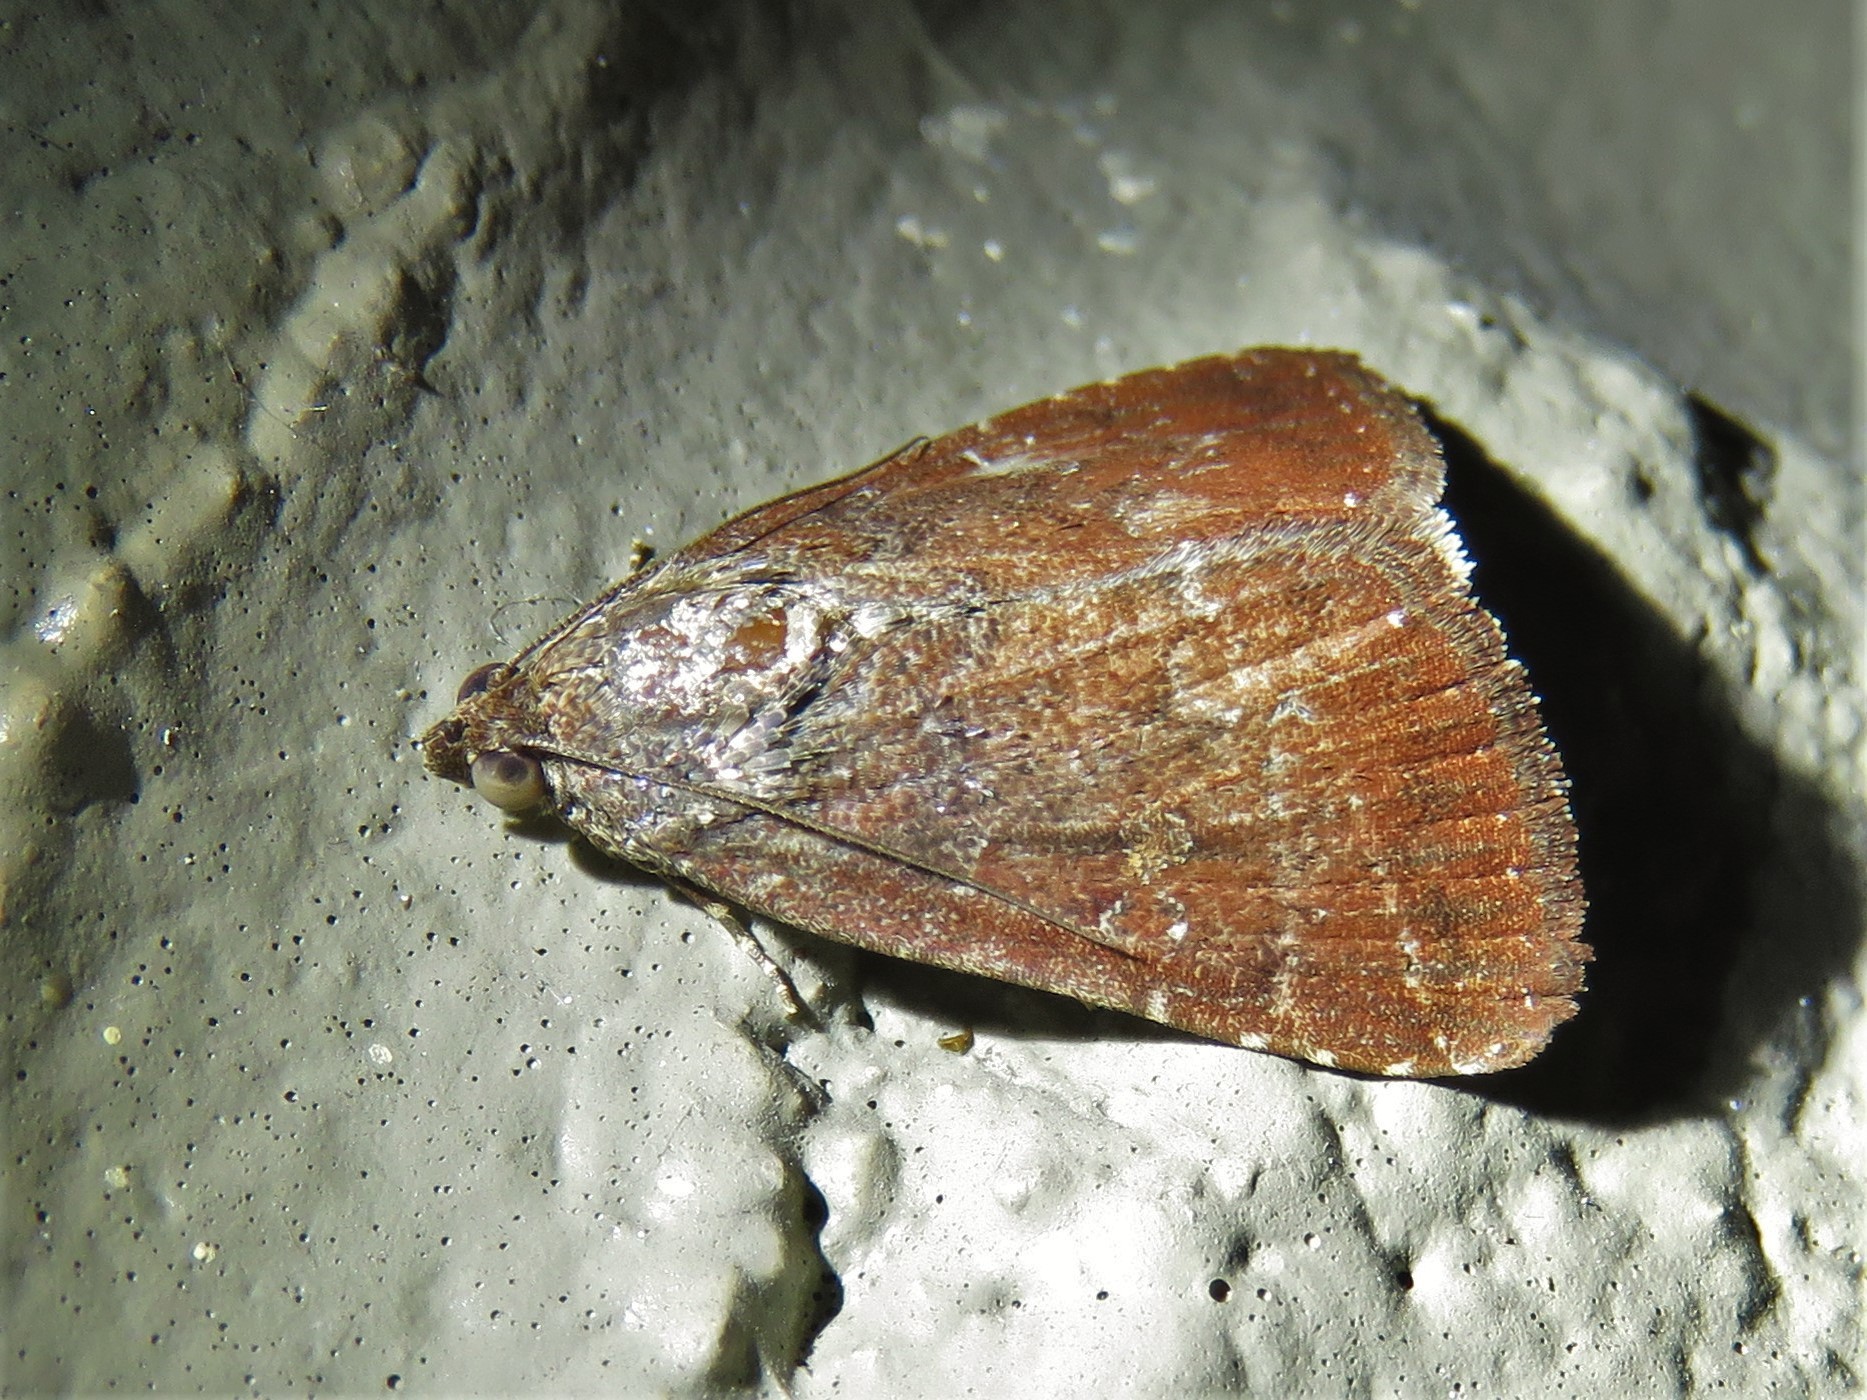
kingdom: Animalia
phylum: Arthropoda
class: Insecta
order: Lepidoptera
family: Noctuidae
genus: Amyna
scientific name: Amyna stricta
